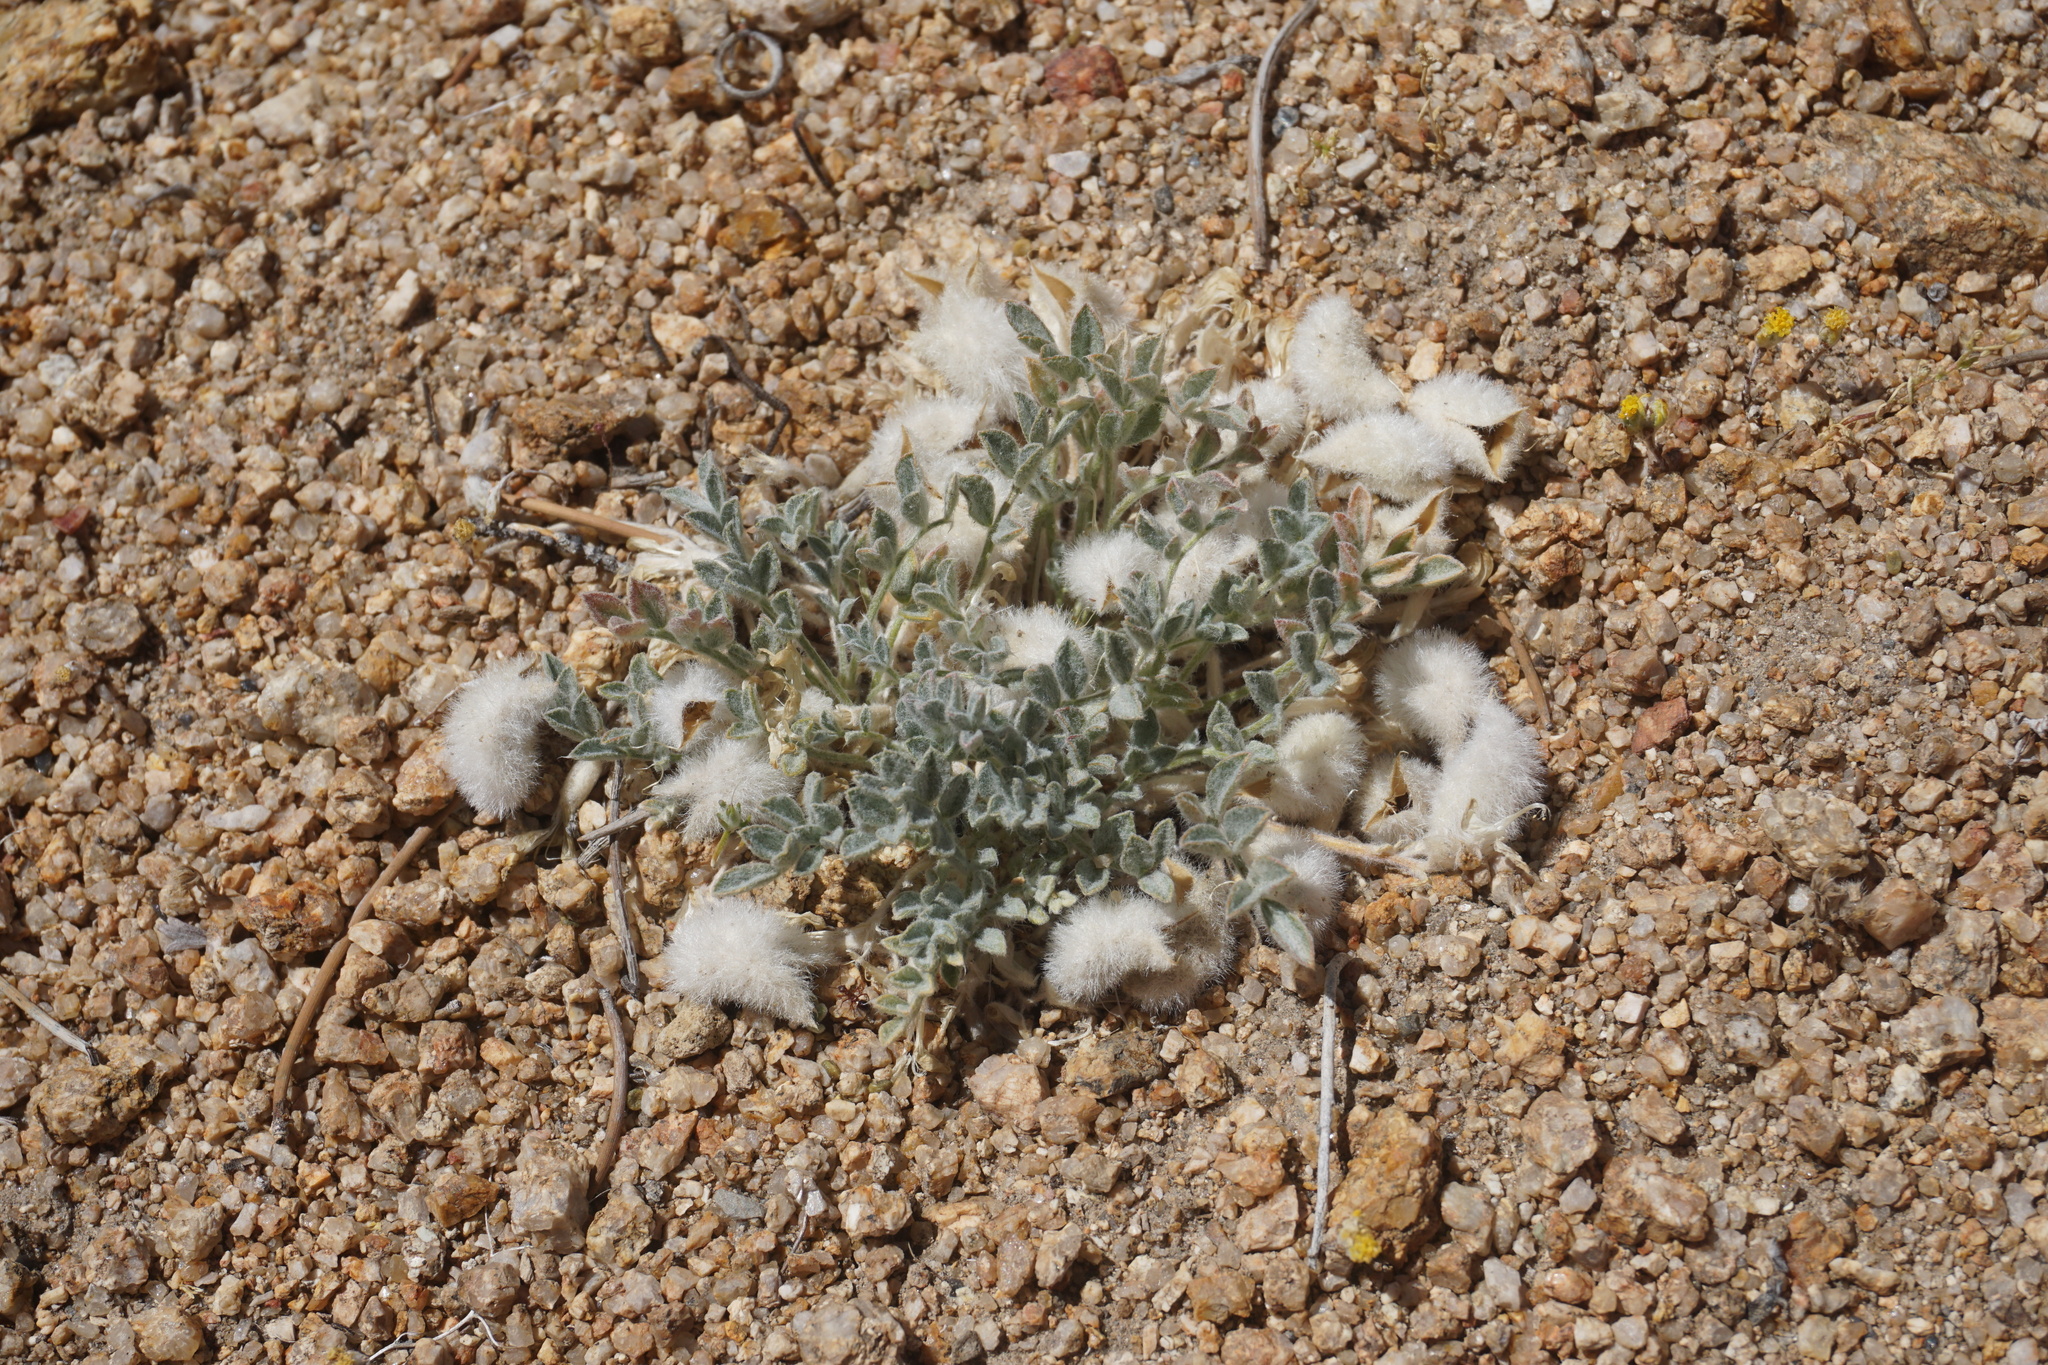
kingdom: Plantae
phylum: Tracheophyta
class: Magnoliopsida
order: Fabales
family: Fabaceae
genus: Astragalus
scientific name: Astragalus purshii
